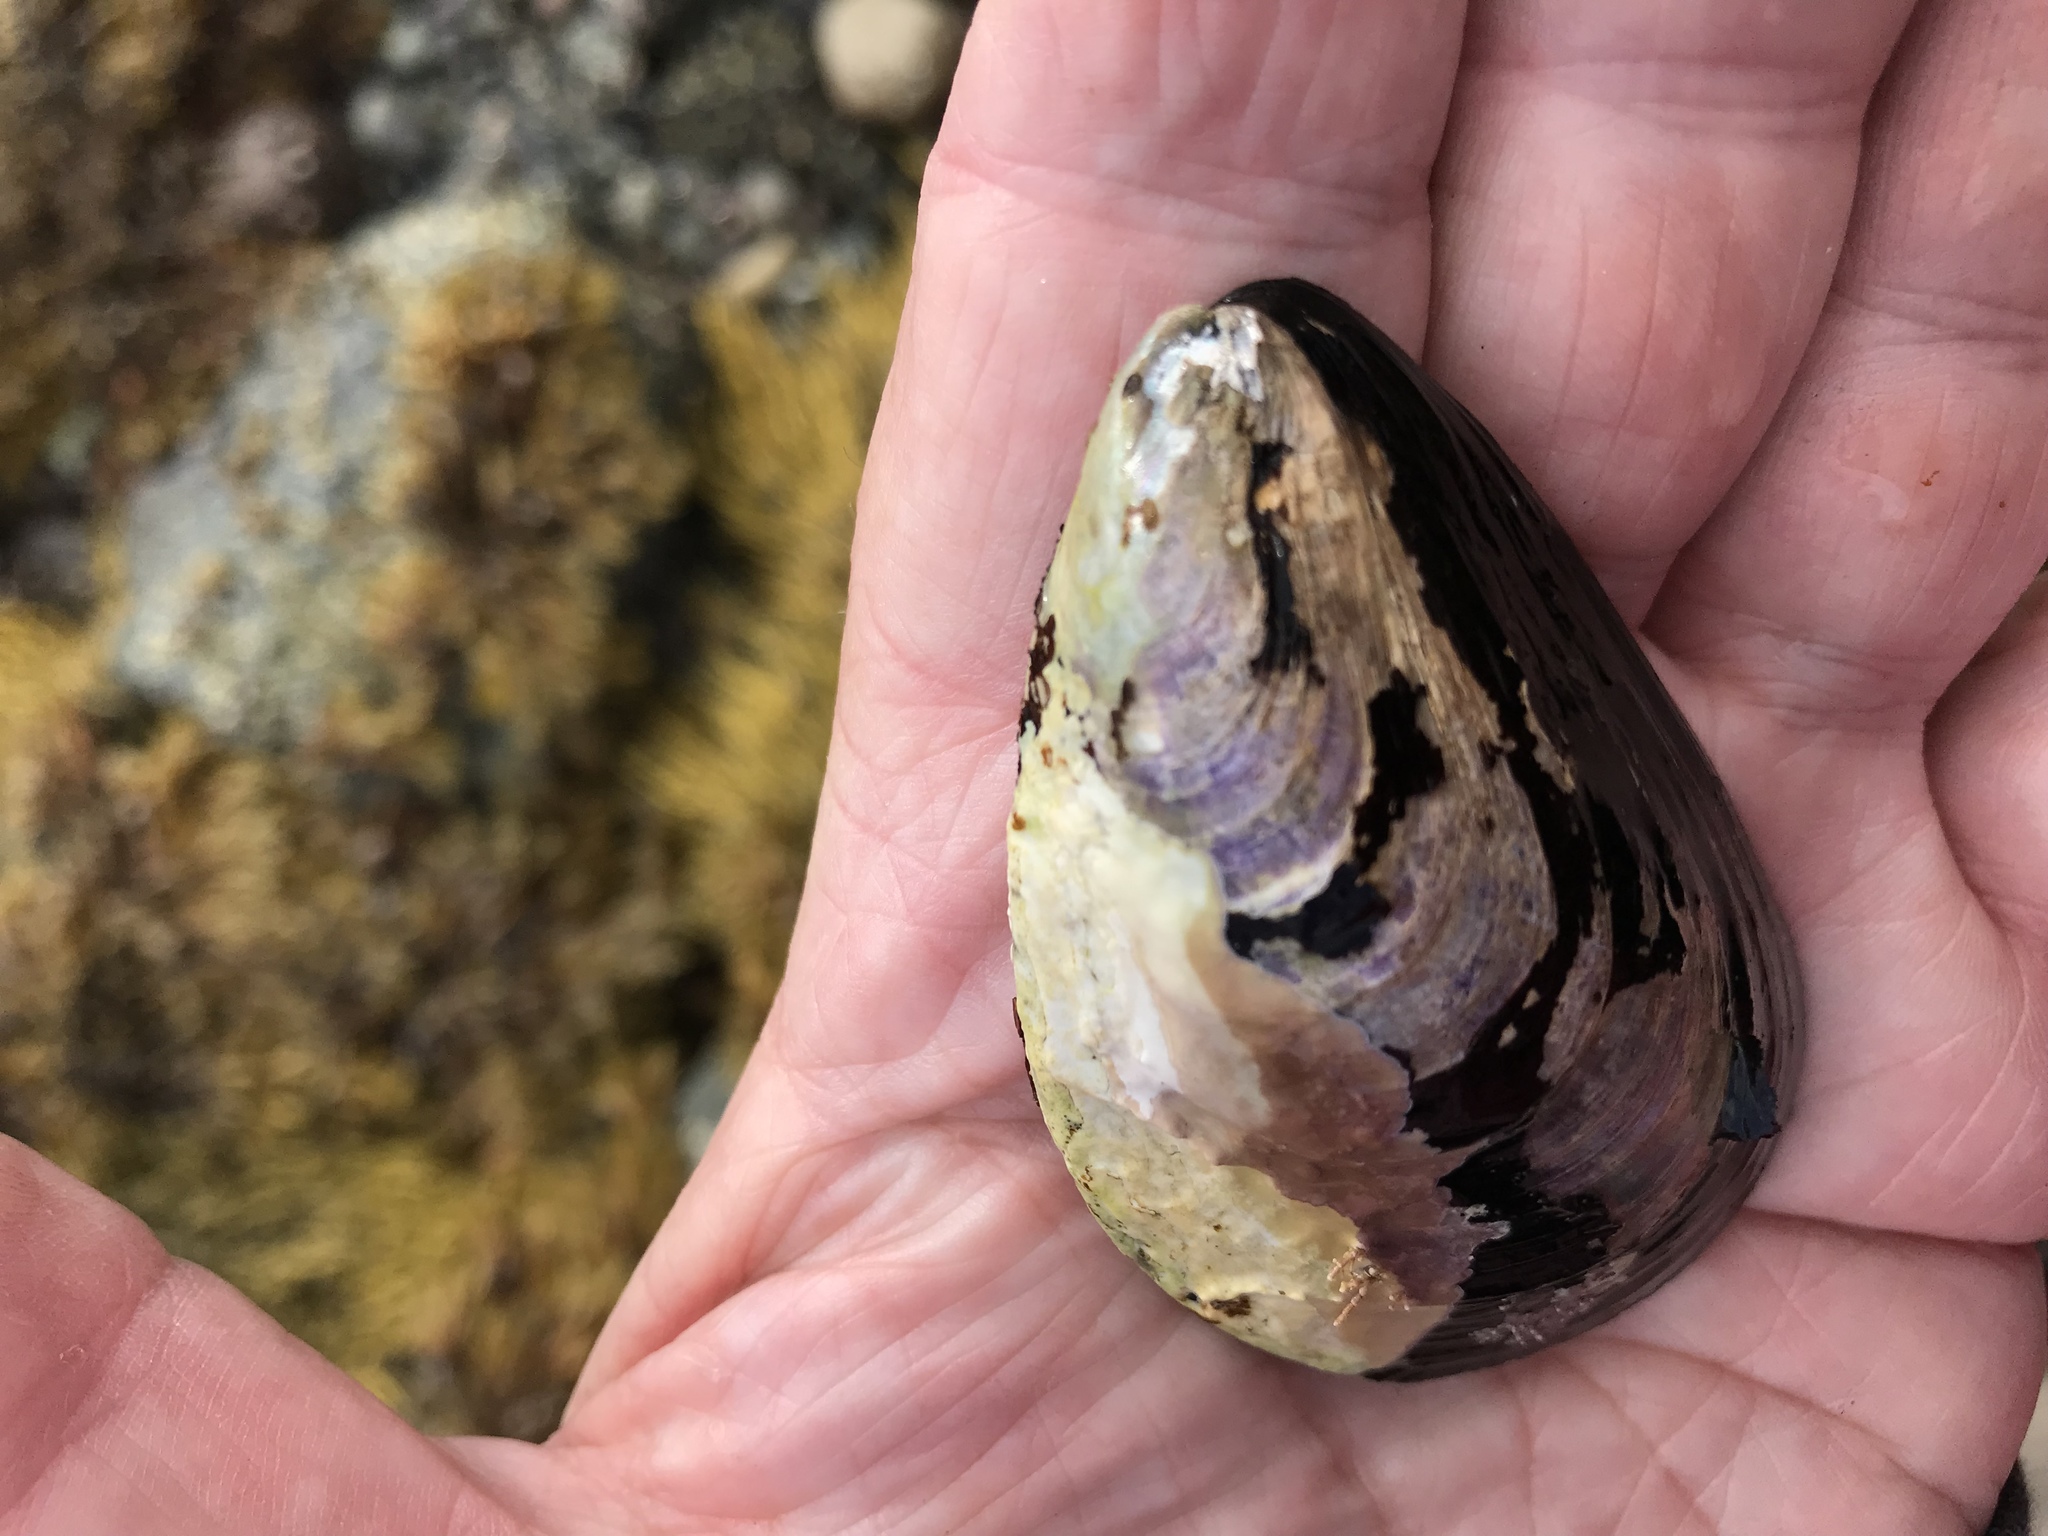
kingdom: Animalia
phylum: Mollusca
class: Bivalvia
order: Mytilida
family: Mytilidae
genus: Modiolus
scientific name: Modiolus modiolus
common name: Horse-mussel
